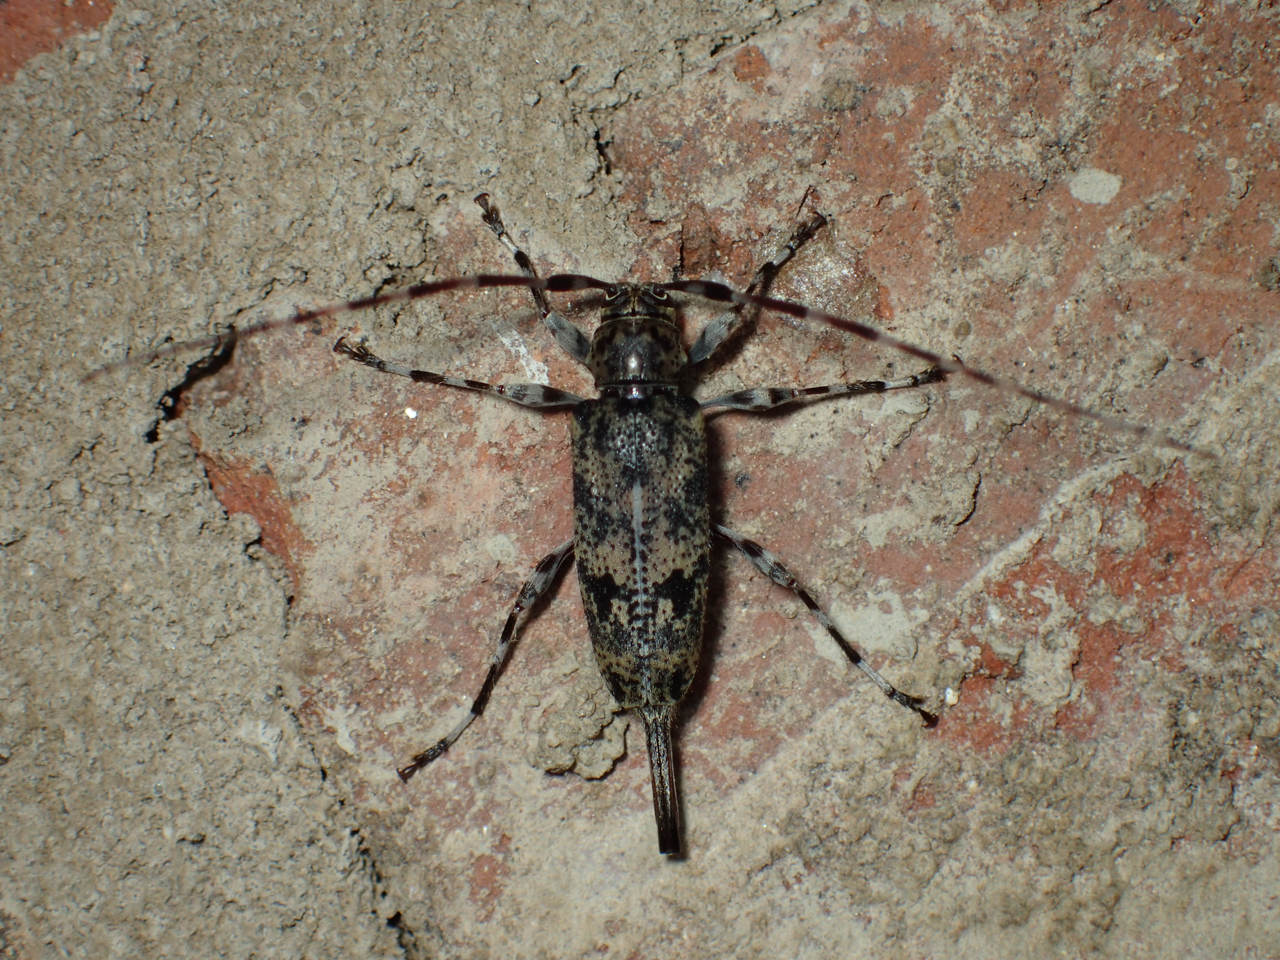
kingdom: Animalia
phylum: Arthropoda
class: Insecta
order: Coleoptera
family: Cerambycidae
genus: Graphisurus
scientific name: Graphisurus fasciatus
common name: Banded graphisurus
